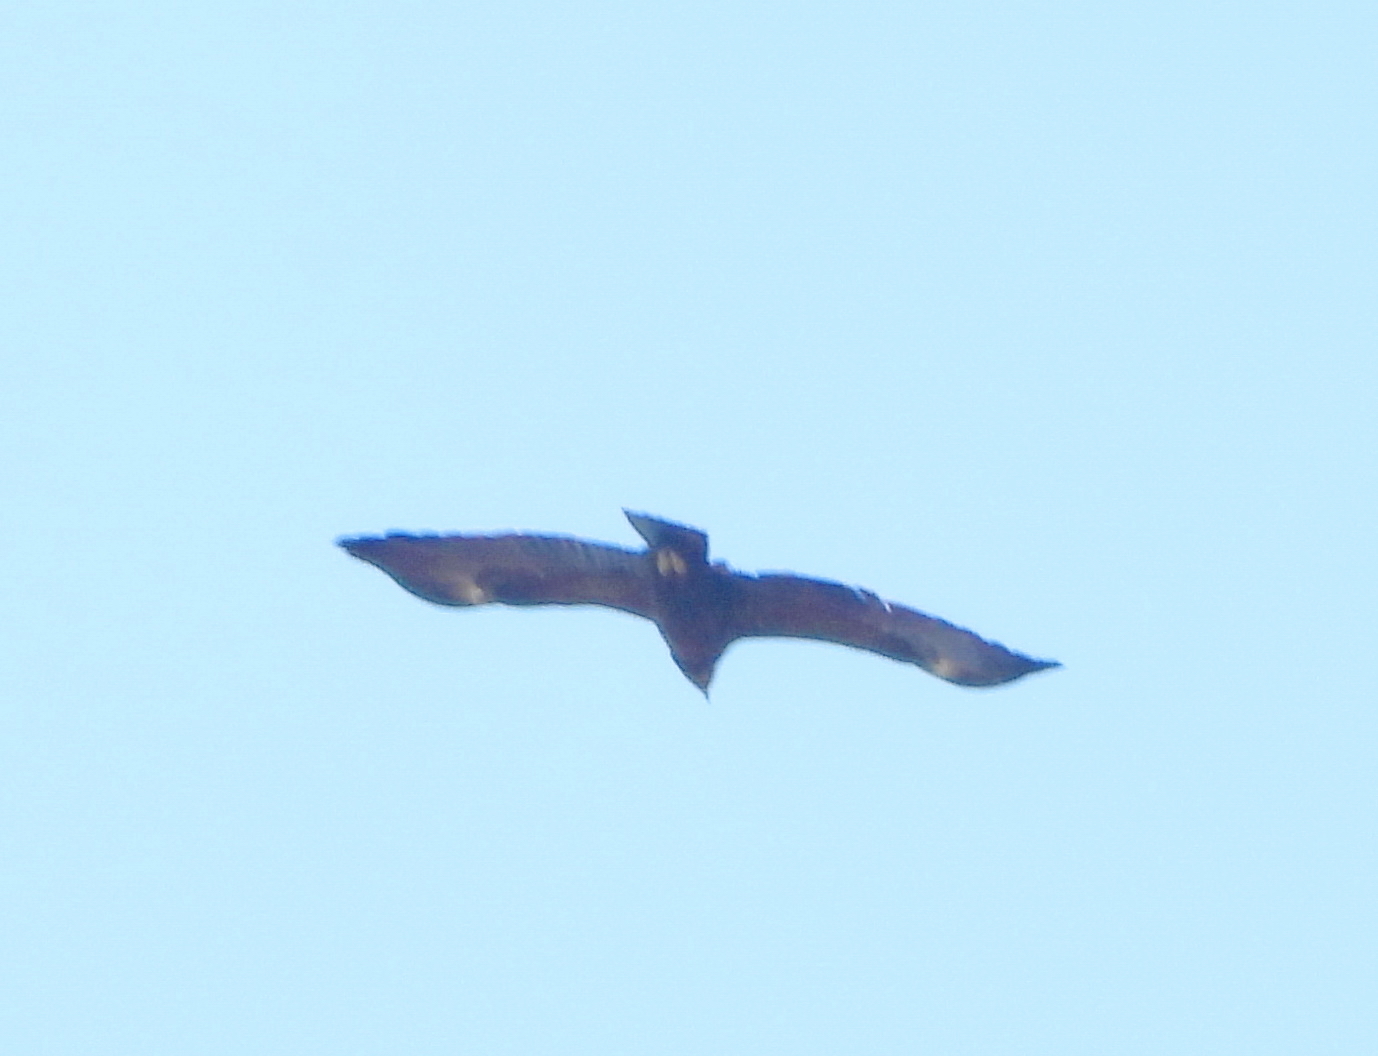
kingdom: Animalia
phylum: Chordata
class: Aves
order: Accipitriformes
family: Accipitridae
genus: Aquila
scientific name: Aquila clanga
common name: Greater spotted eagle
